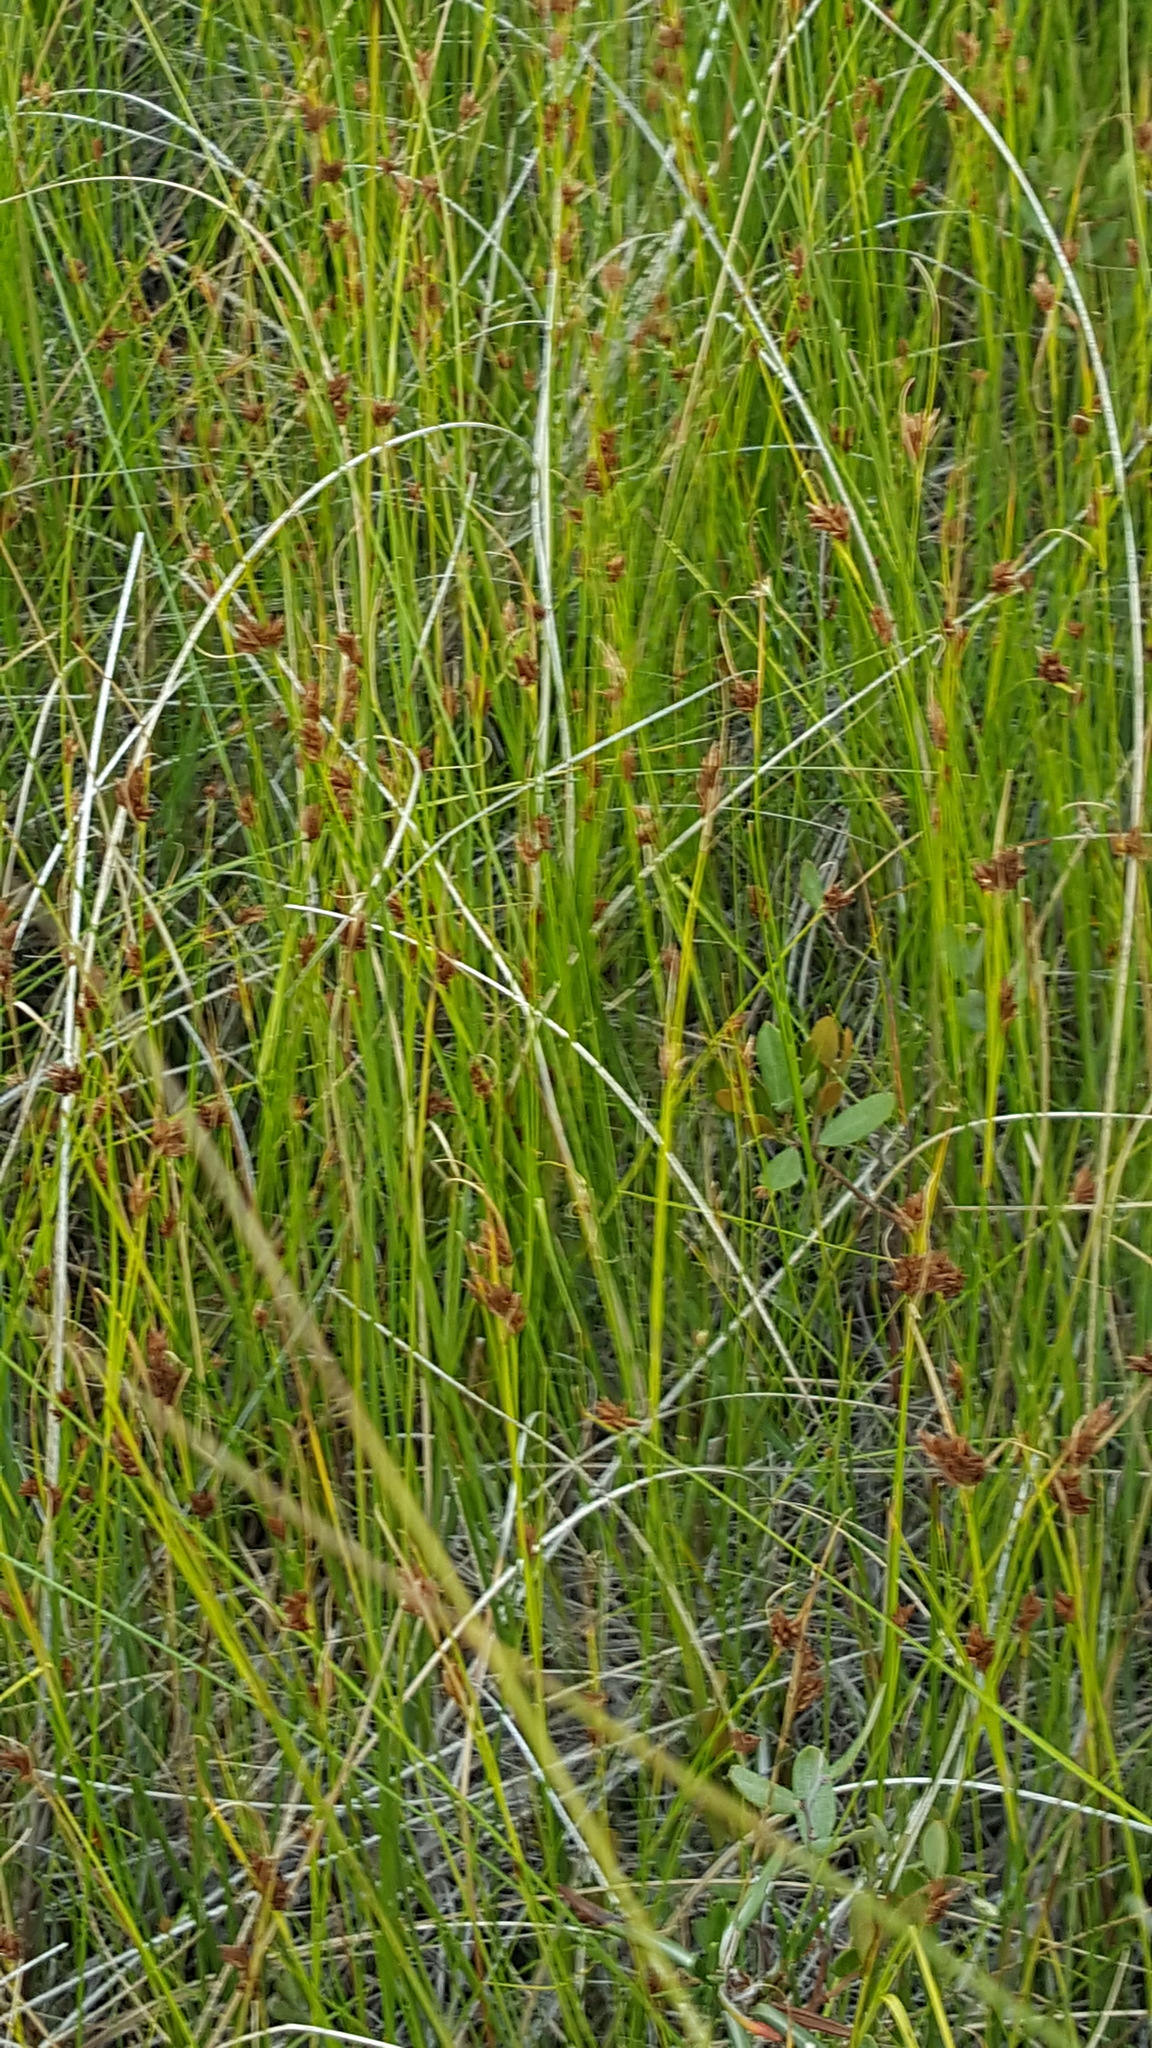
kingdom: Plantae
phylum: Tracheophyta
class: Liliopsida
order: Poales
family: Cyperaceae
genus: Rhynchospora
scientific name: Rhynchospora fusca
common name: Brown beak-sedge
